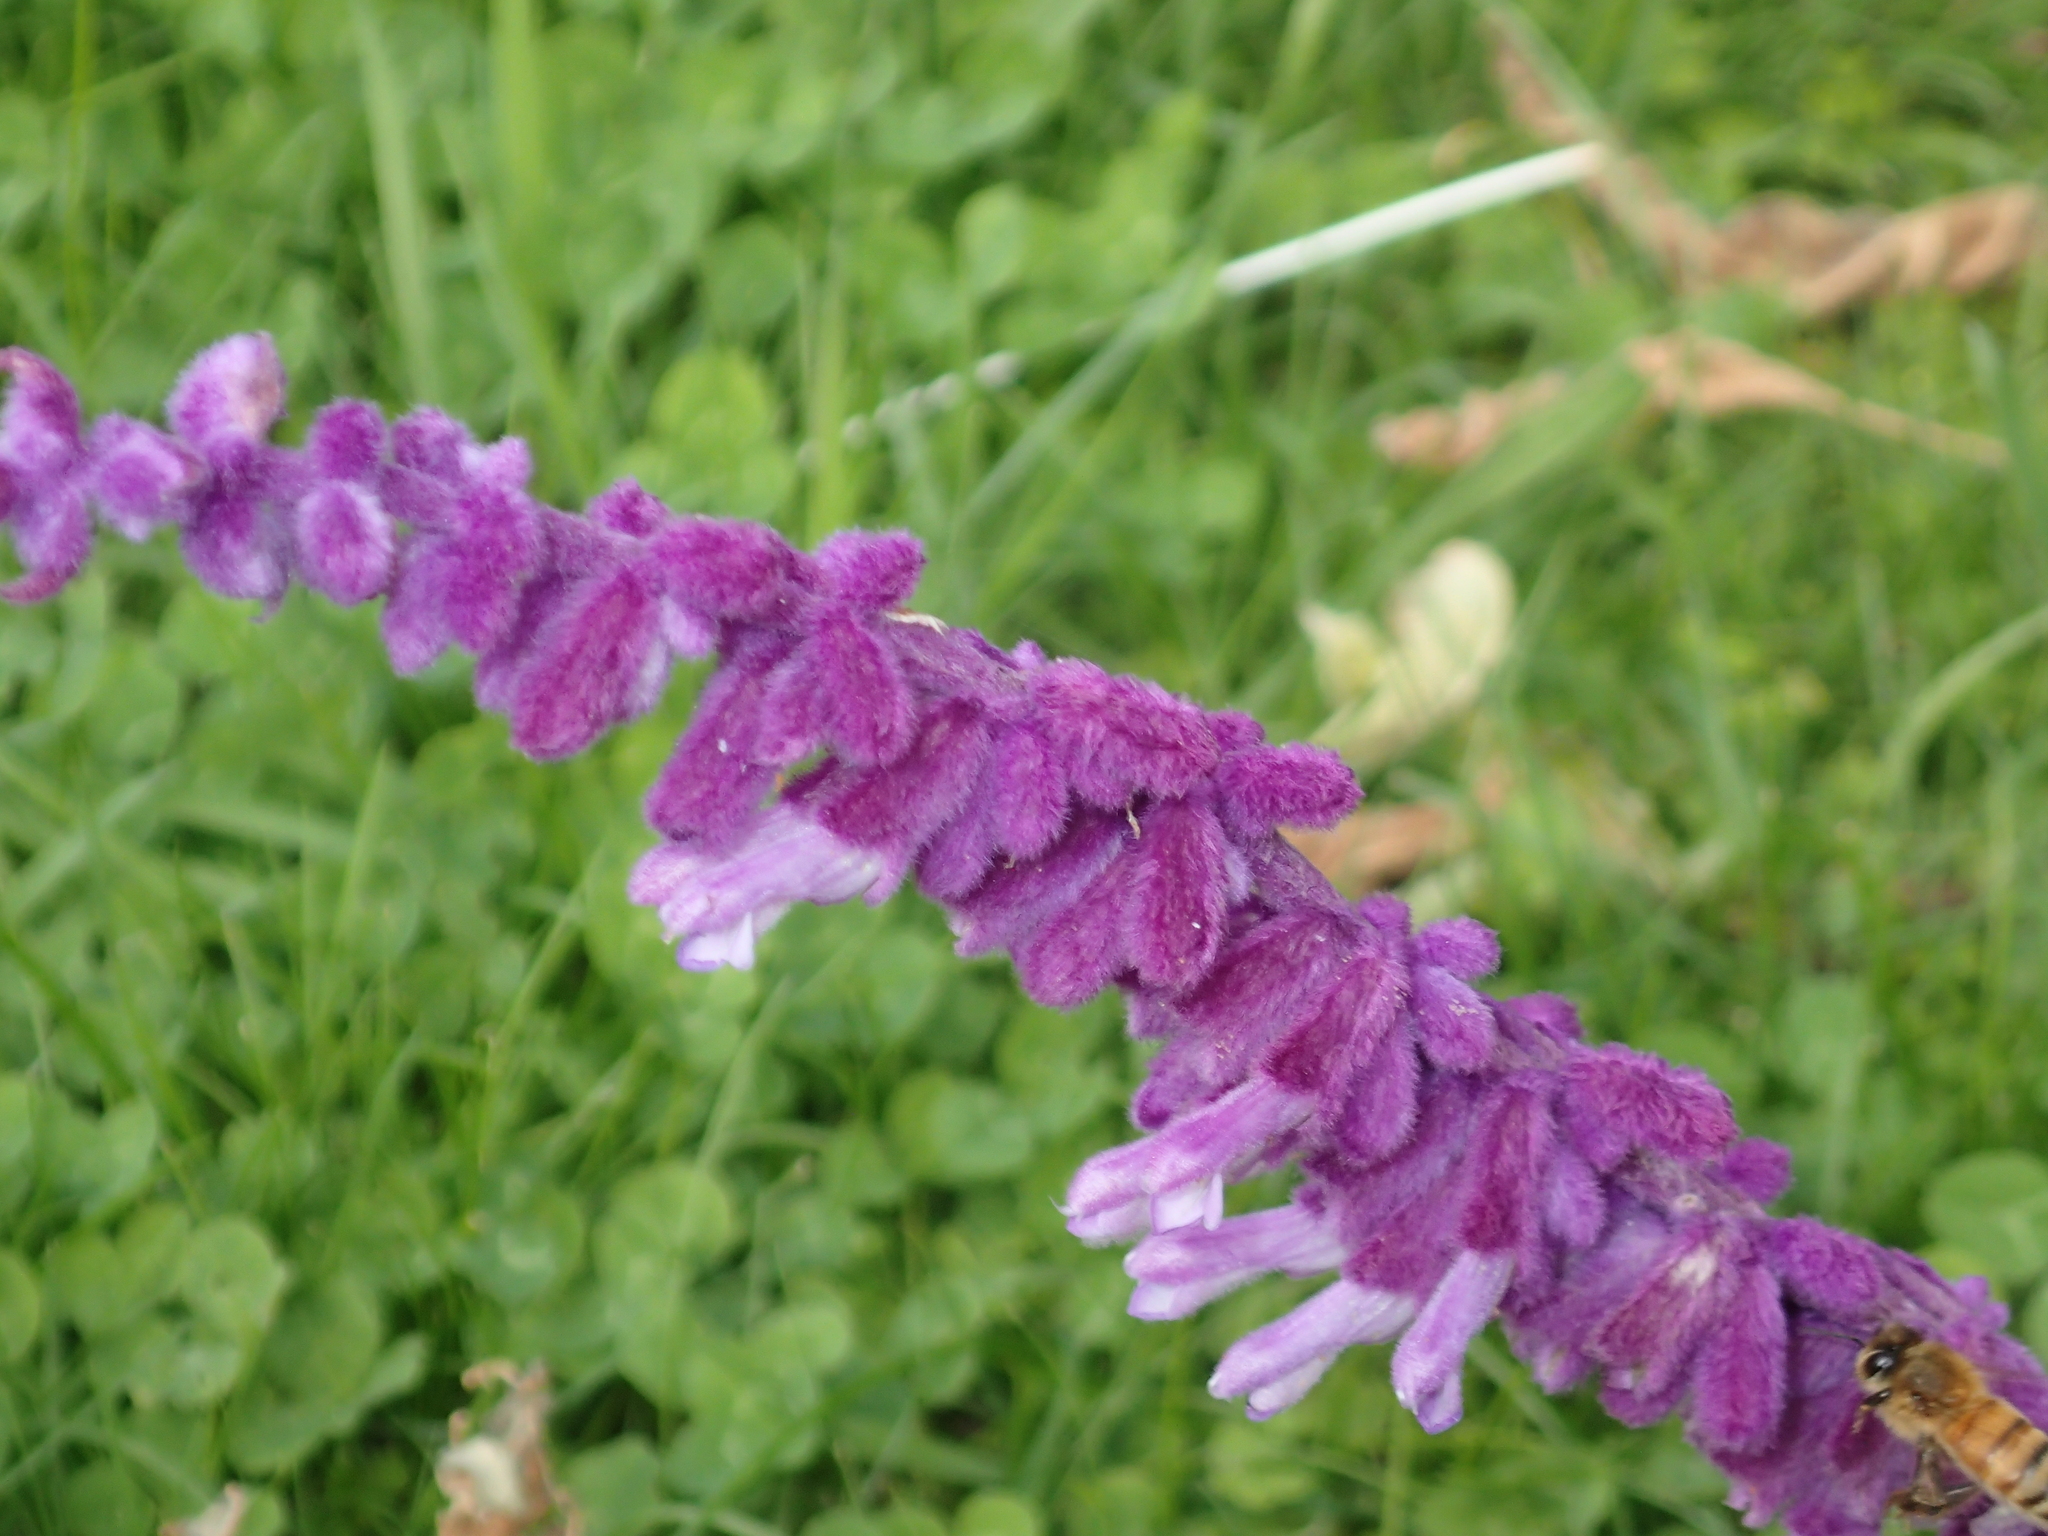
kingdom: Plantae
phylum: Tracheophyta
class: Magnoliopsida
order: Lamiales
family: Lamiaceae
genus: Salvia
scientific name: Salvia leucantha
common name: Mexican bush sage
